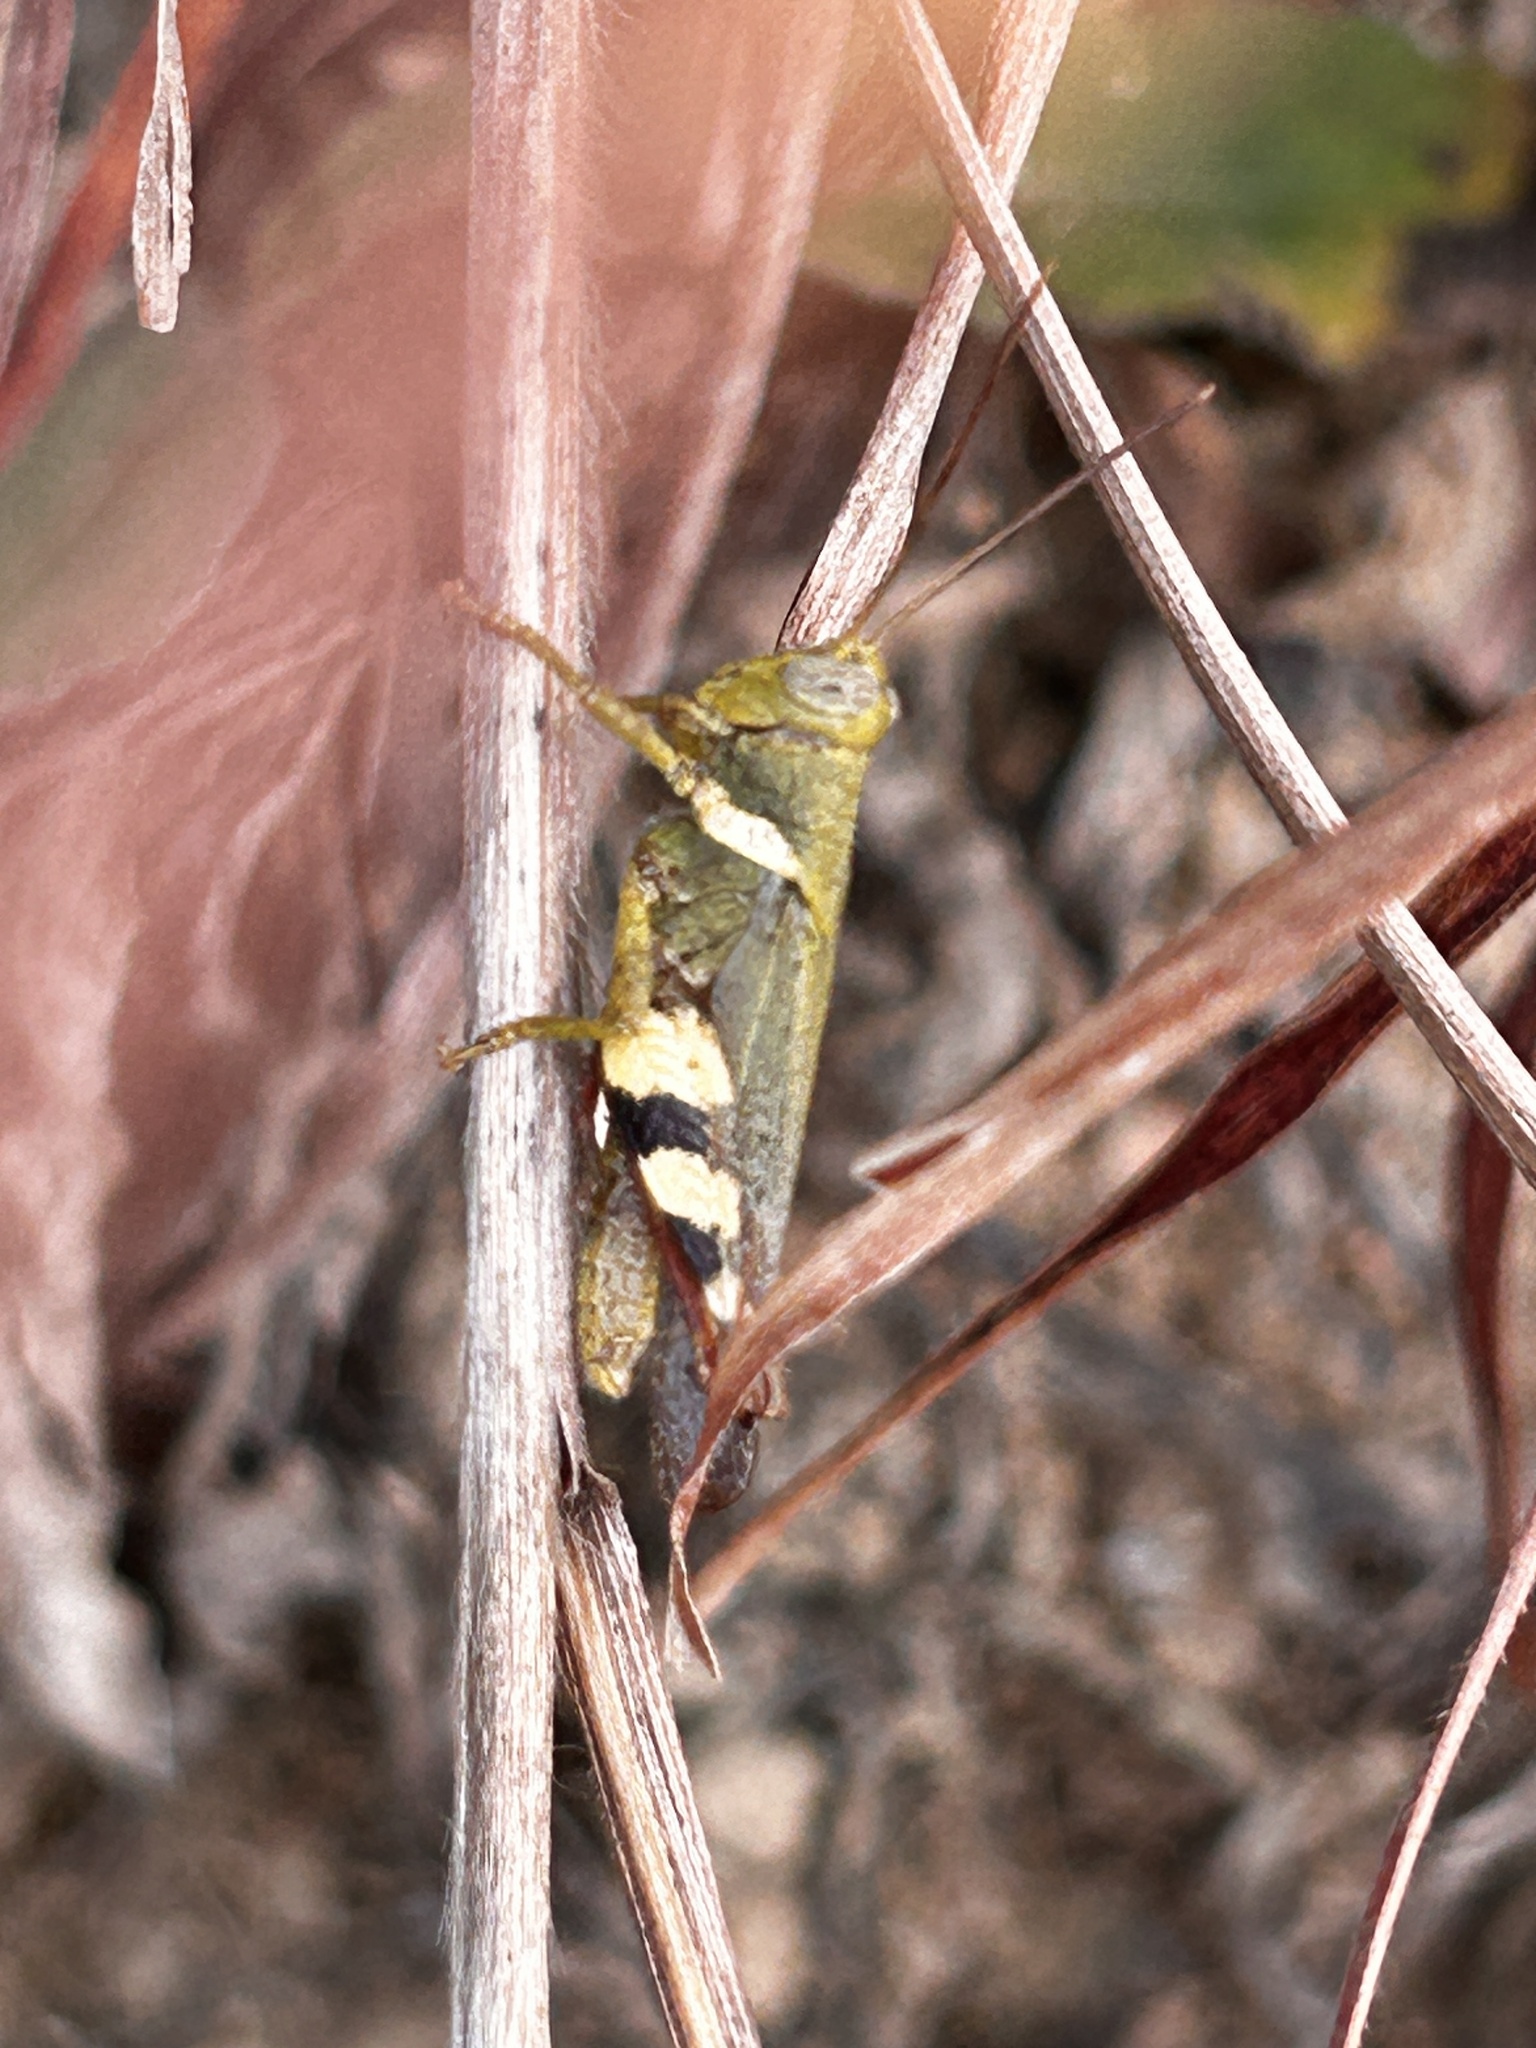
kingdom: Animalia
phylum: Arthropoda
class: Insecta
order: Orthoptera
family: Acrididae
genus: Apalacris
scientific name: Apalacris varicornis
